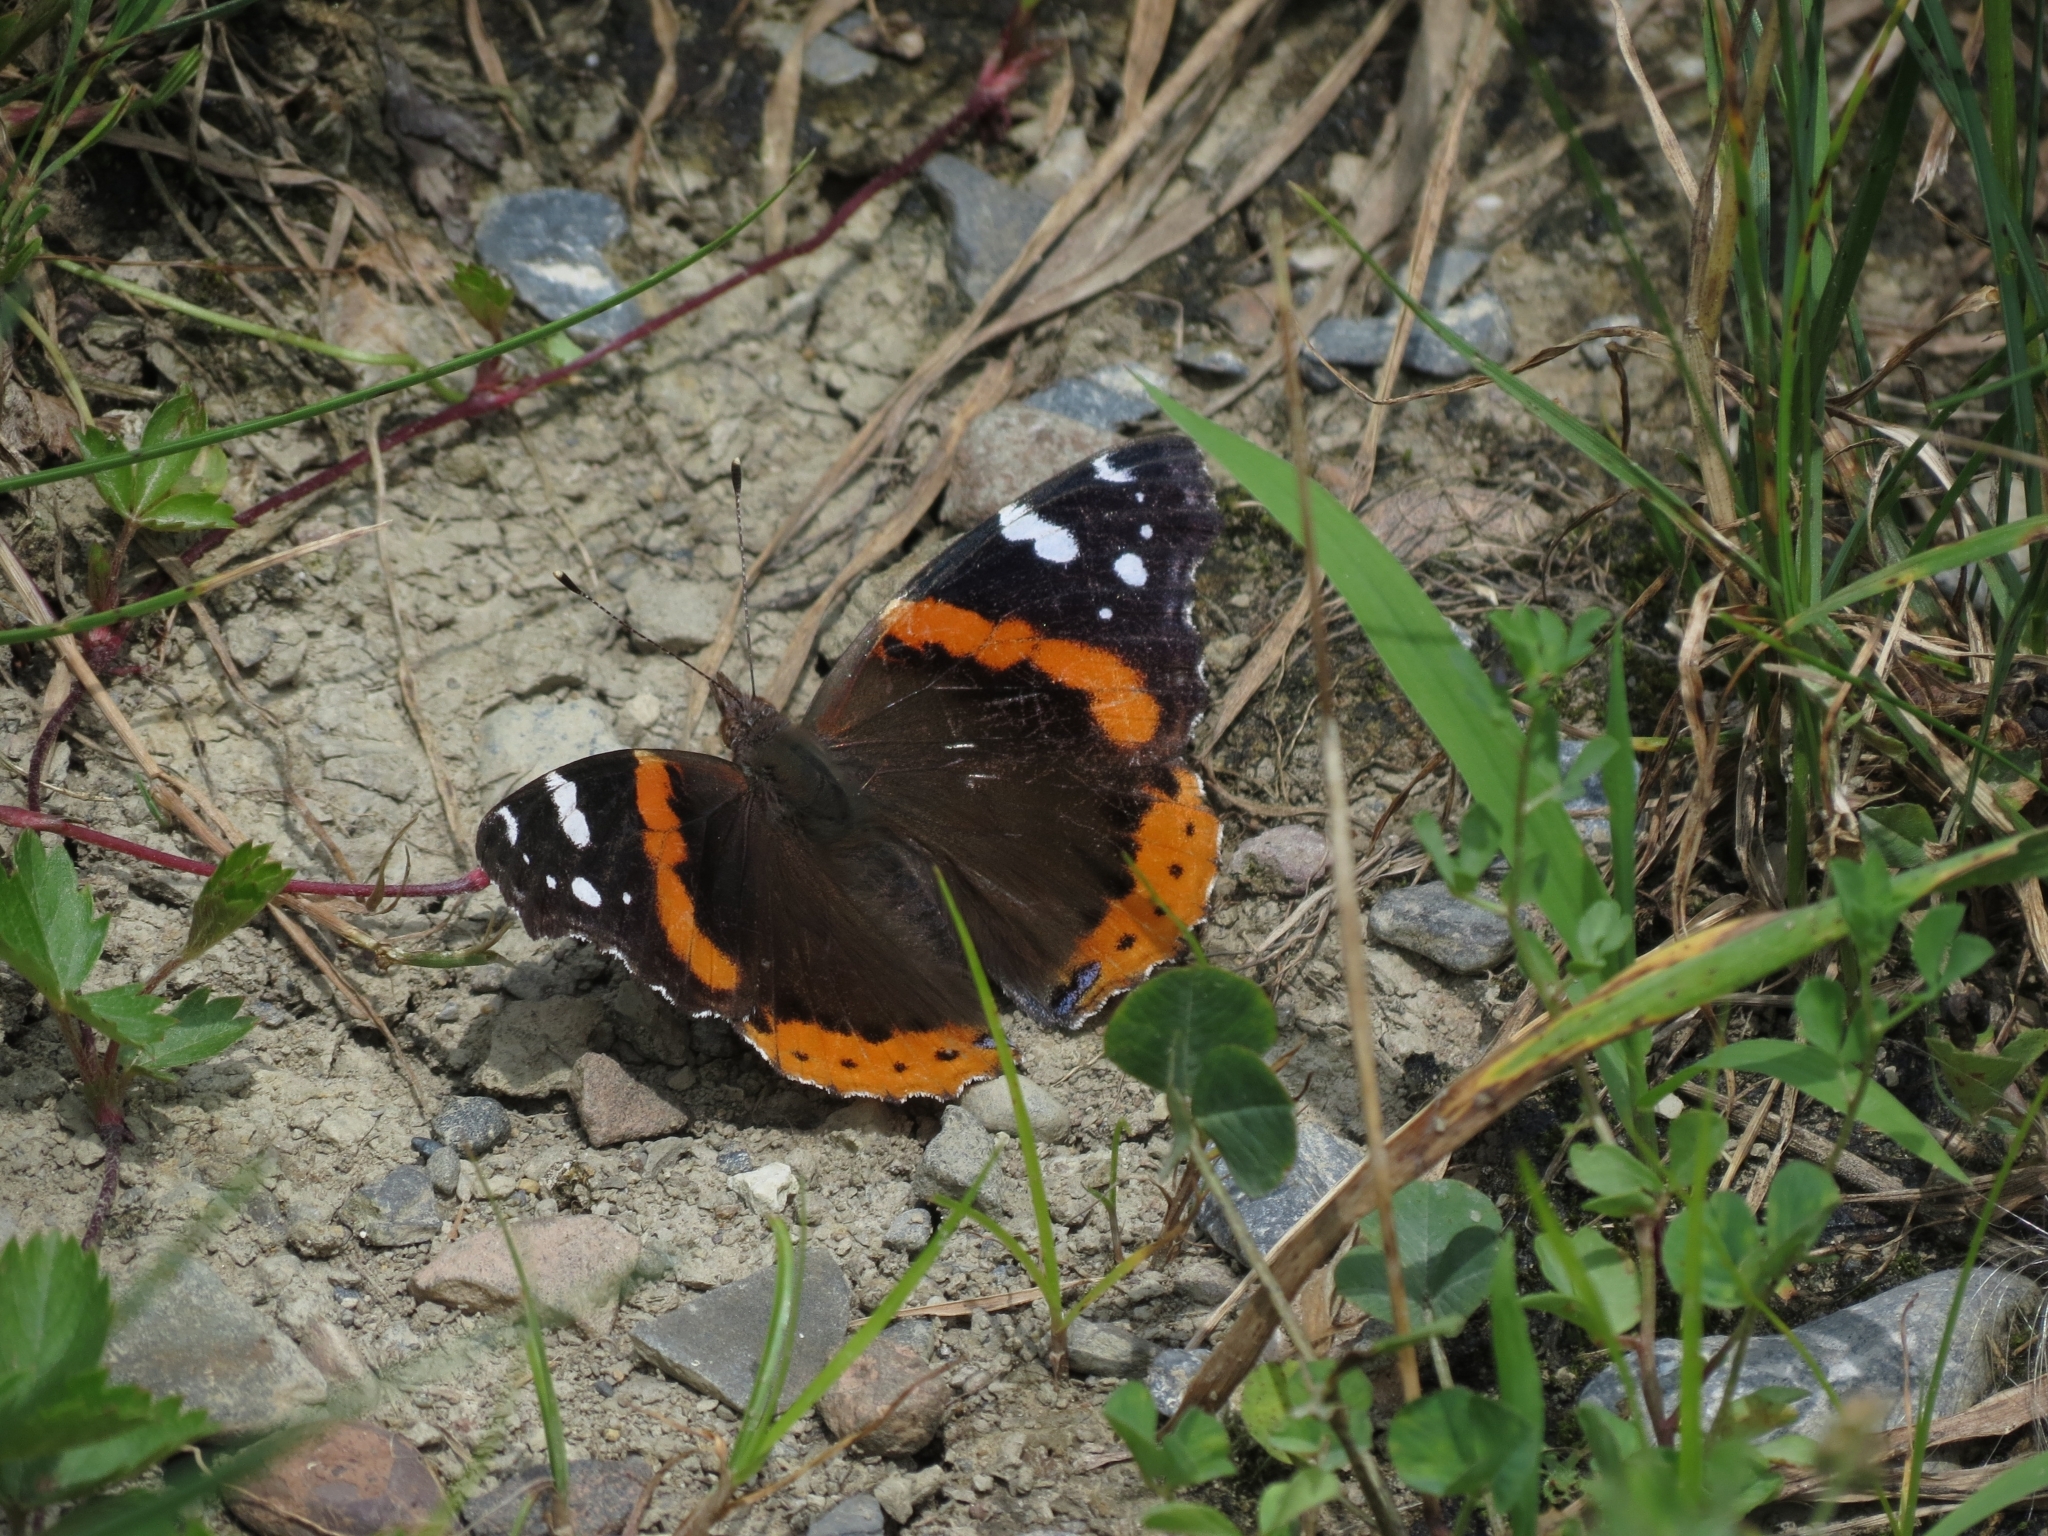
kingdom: Animalia
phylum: Arthropoda
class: Insecta
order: Lepidoptera
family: Nymphalidae
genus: Vanessa
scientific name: Vanessa atalanta
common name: Red admiral
